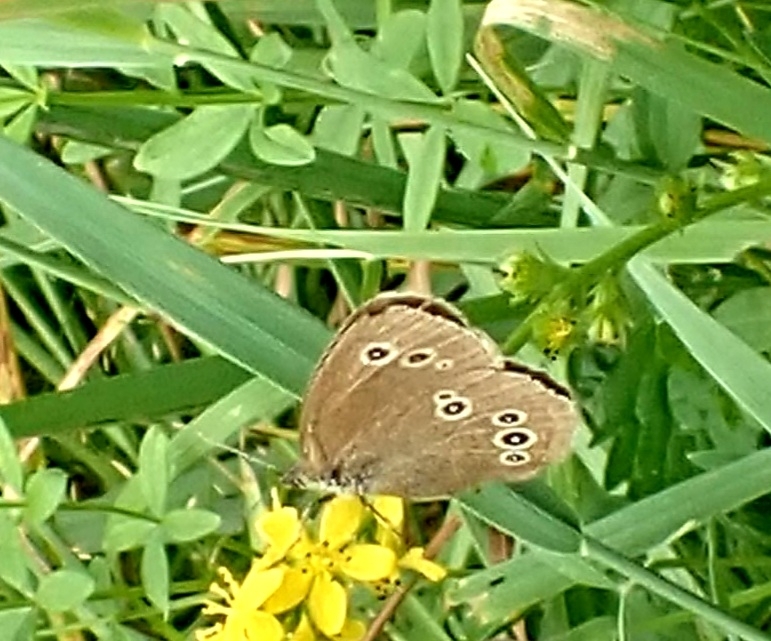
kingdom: Animalia
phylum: Arthropoda
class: Insecta
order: Lepidoptera
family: Nymphalidae
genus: Aphantopus
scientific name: Aphantopus hyperantus
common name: Ringlet
